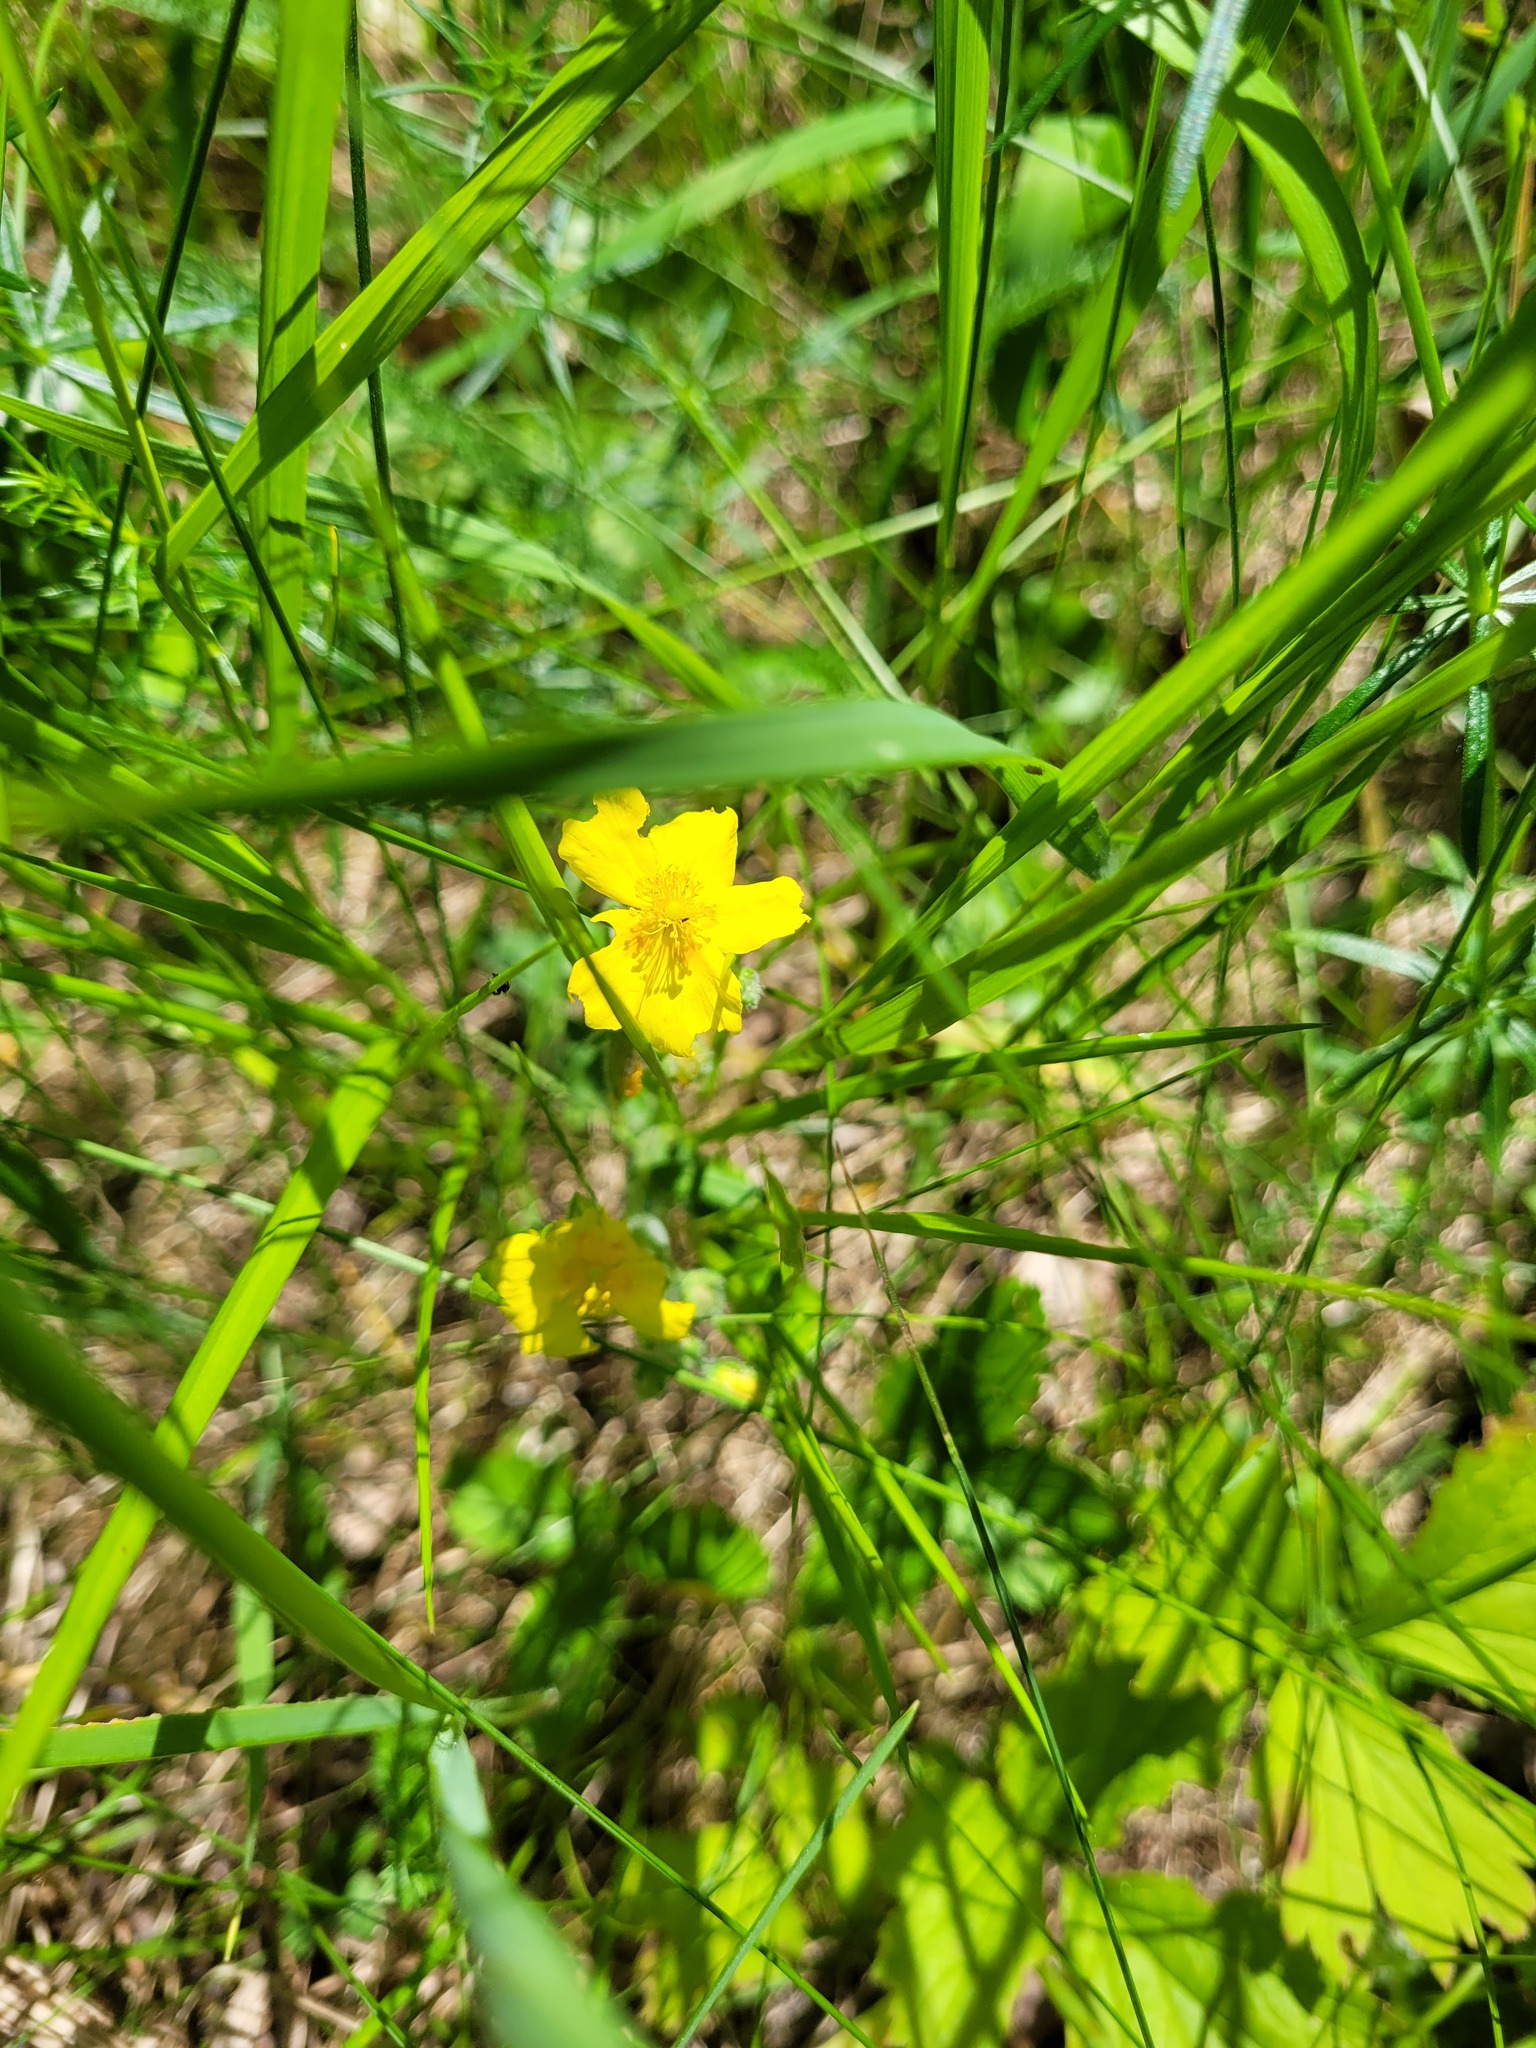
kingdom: Plantae
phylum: Tracheophyta
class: Magnoliopsida
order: Malvales
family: Cistaceae
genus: Helianthemum
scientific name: Helianthemum nummularium
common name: Common rock-rose
